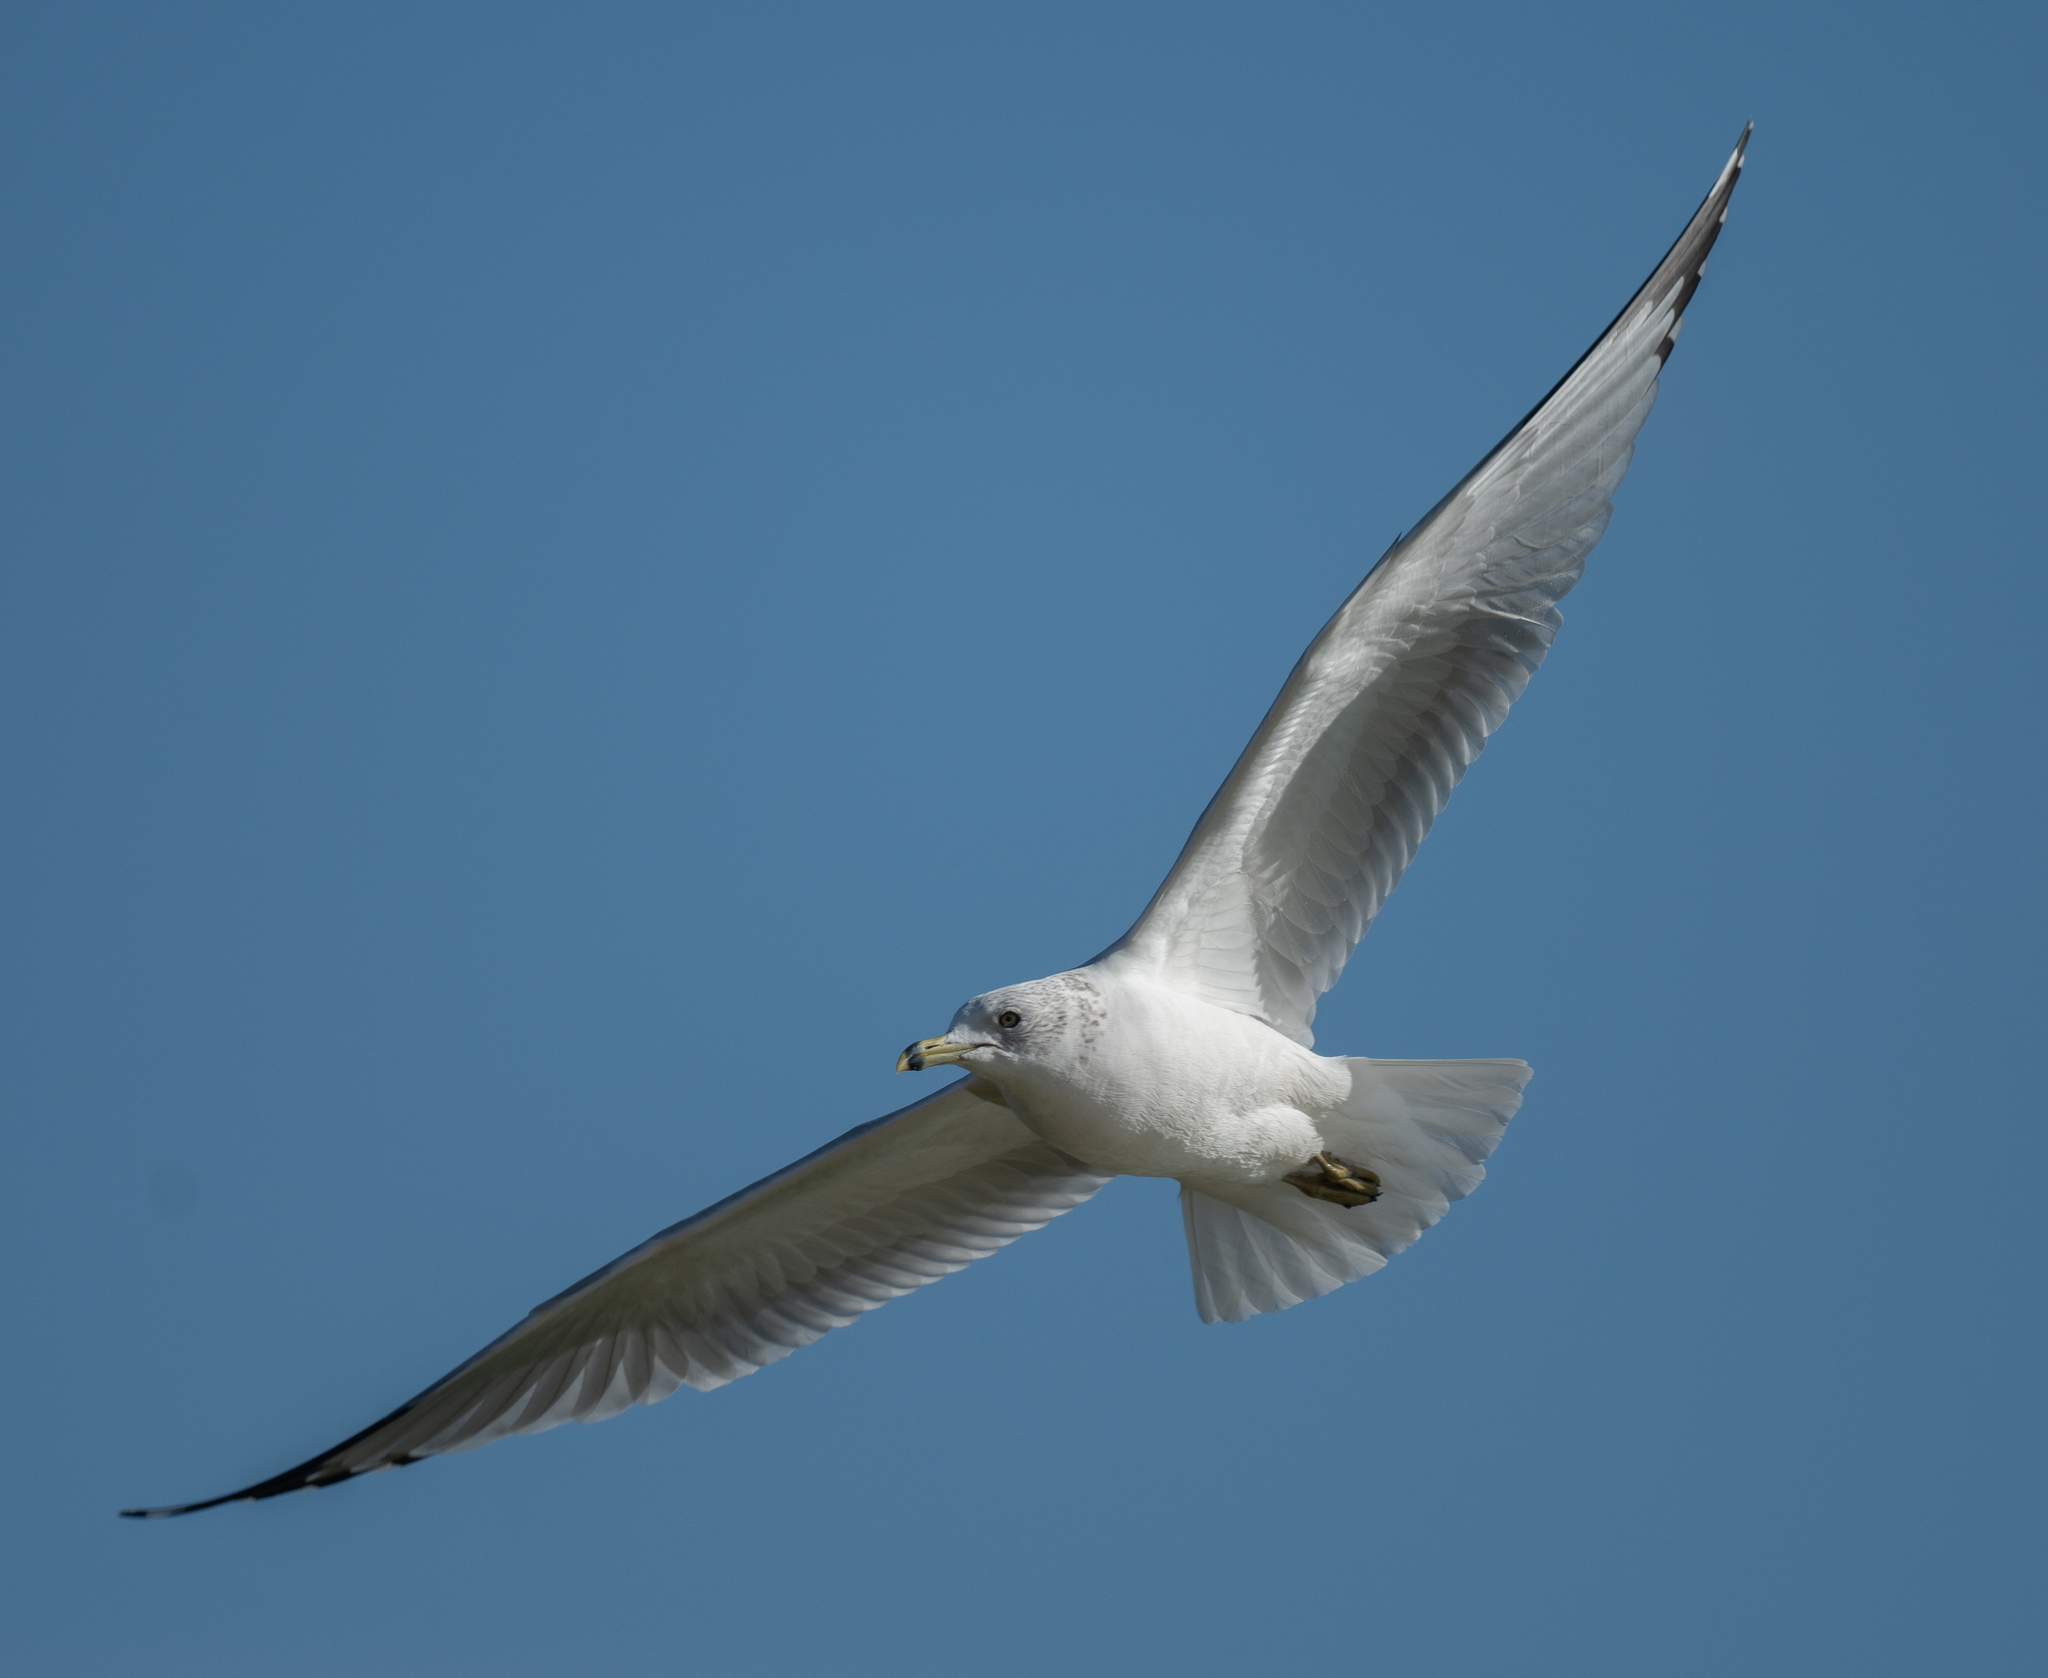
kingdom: Animalia
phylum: Chordata
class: Aves
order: Charadriiformes
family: Laridae
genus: Larus
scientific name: Larus delawarensis
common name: Ring-billed gull
